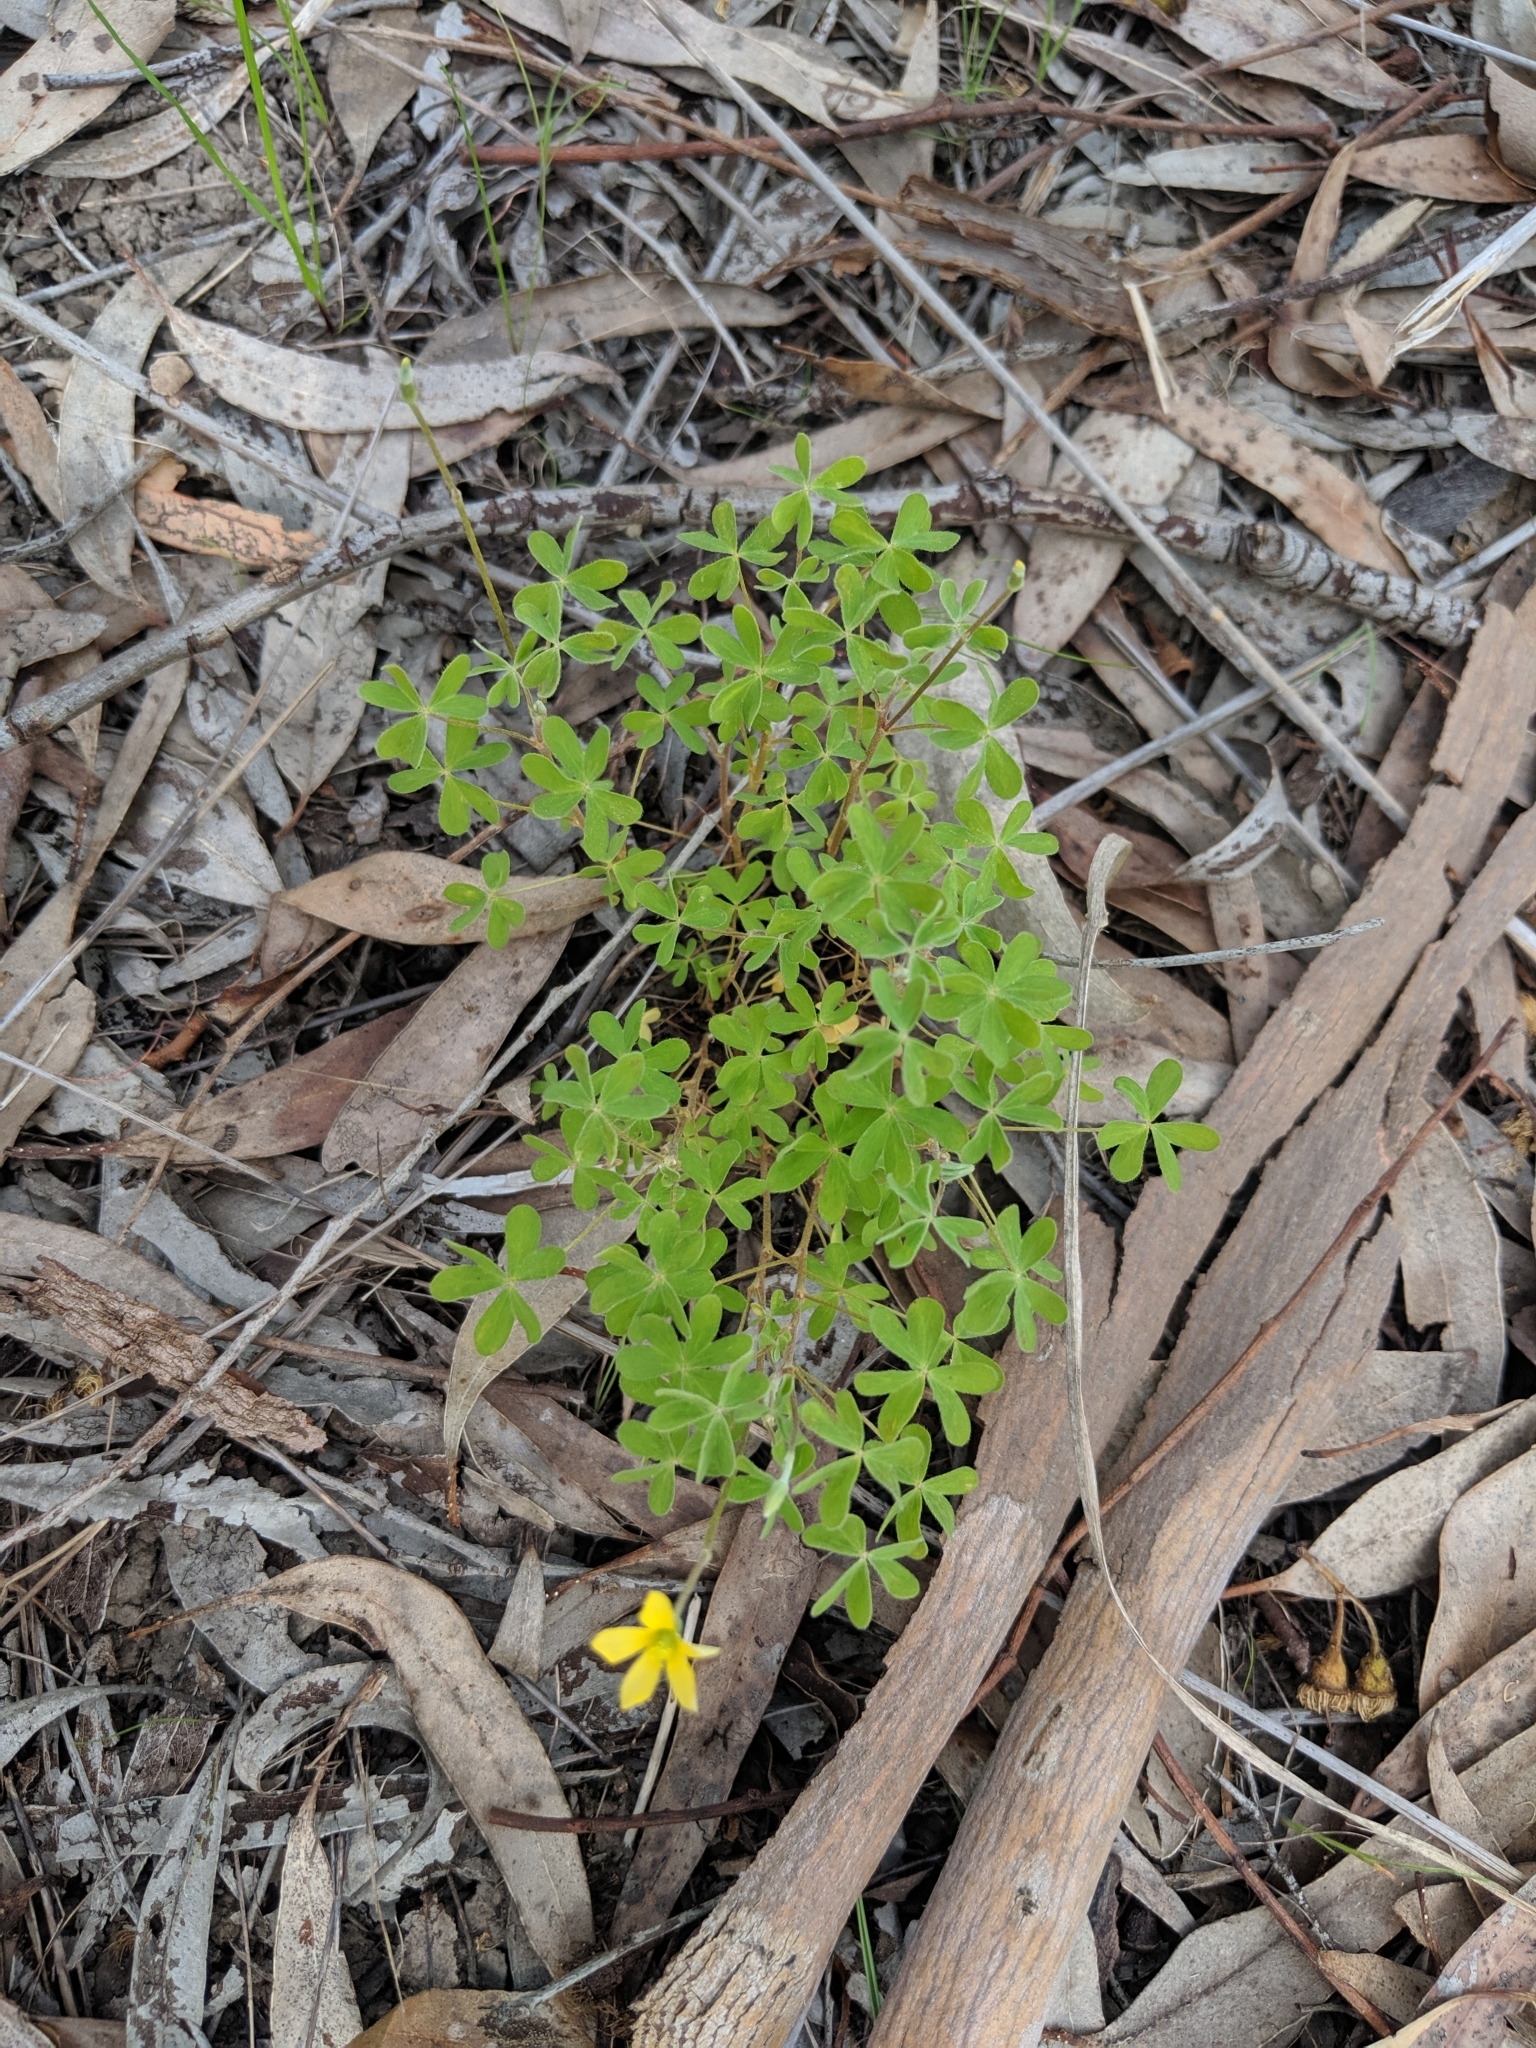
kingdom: Plantae
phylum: Tracheophyta
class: Magnoliopsida
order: Oxalidales
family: Oxalidaceae
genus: Oxalis
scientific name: Oxalis perennans
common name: Woody-rooted yellow-sorrel
